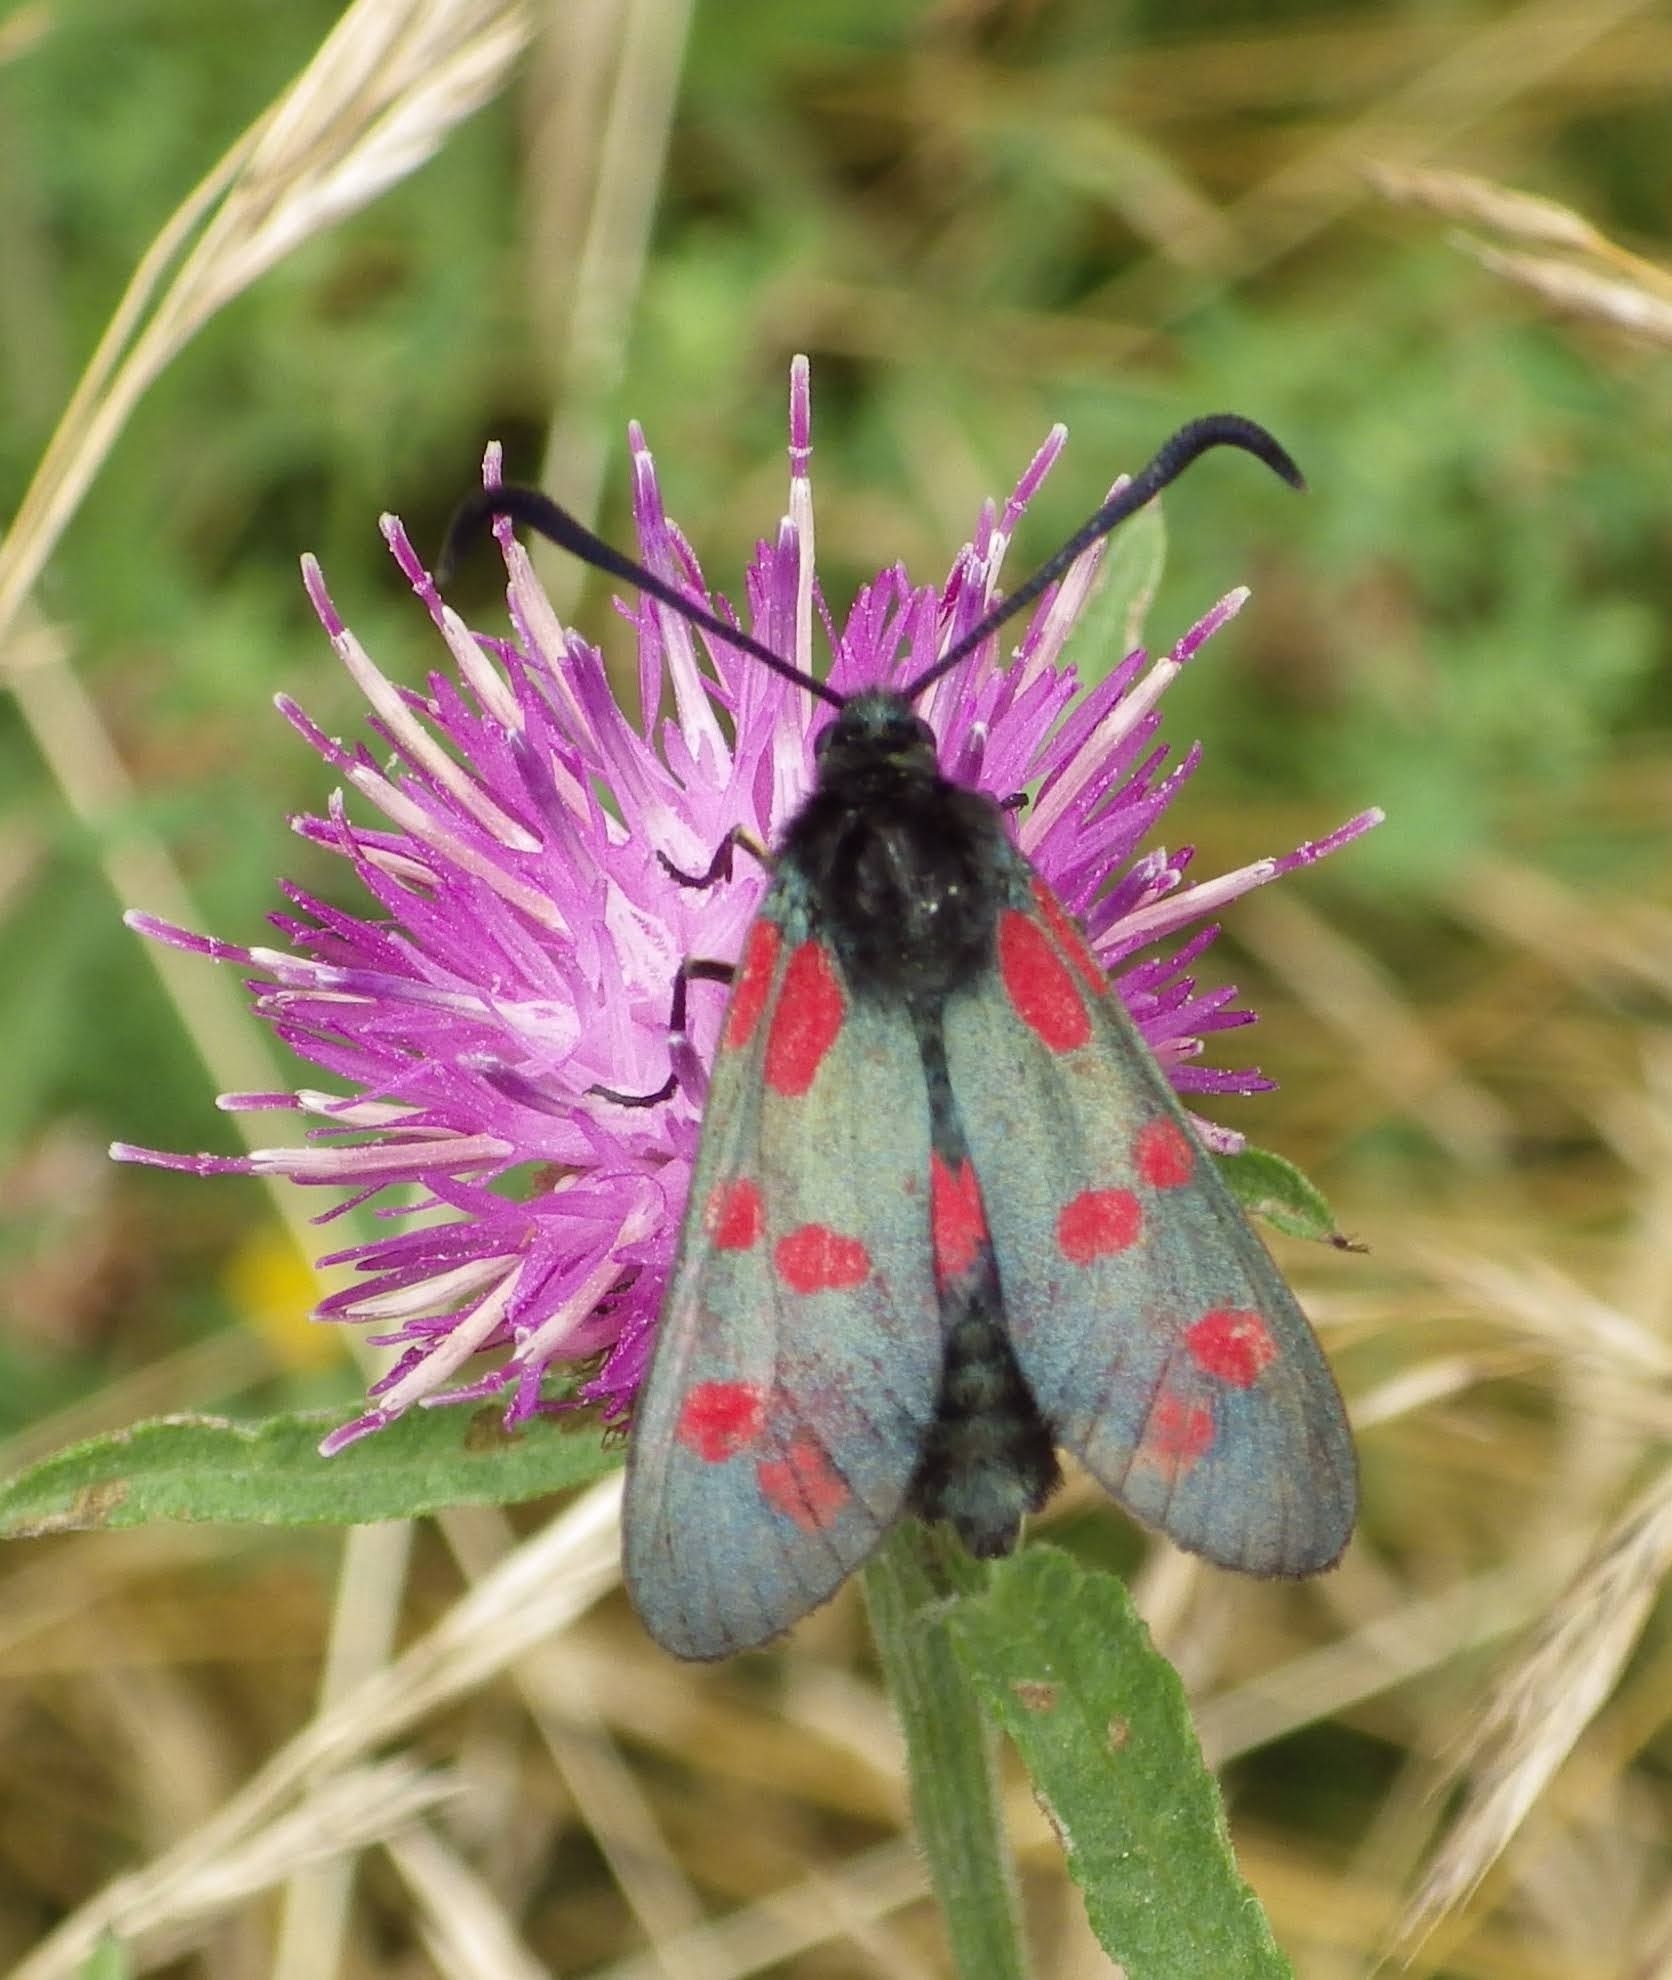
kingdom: Animalia
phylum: Arthropoda
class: Insecta
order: Lepidoptera
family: Zygaenidae
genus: Zygaena
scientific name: Zygaena filipendulae
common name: Six-spot burnet
